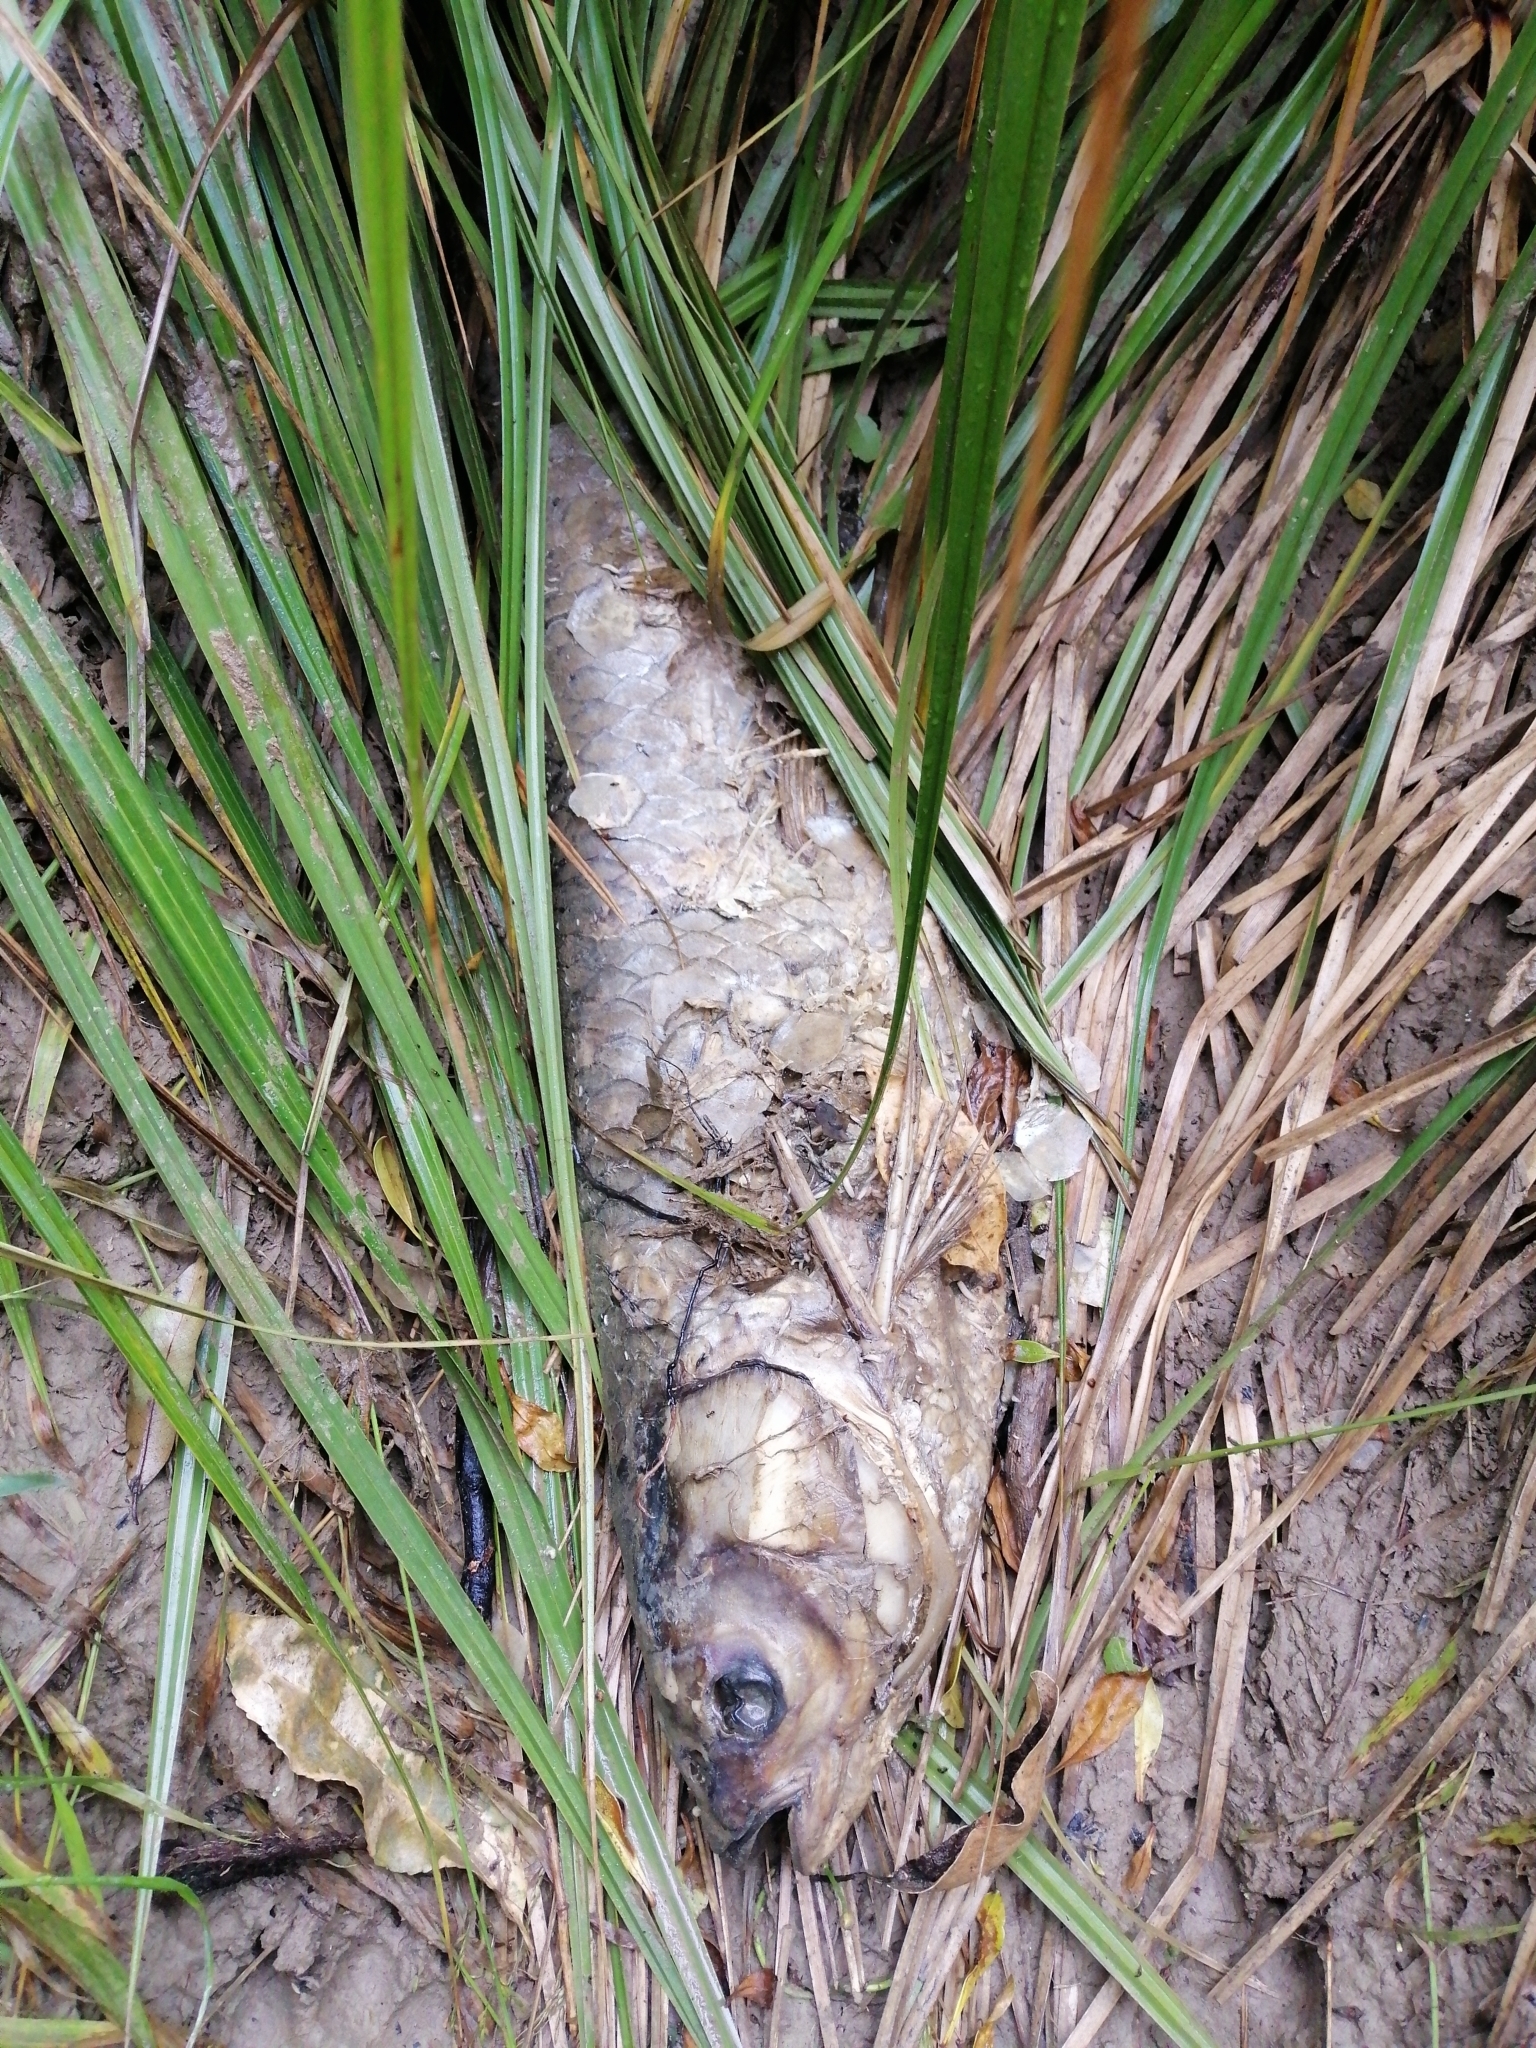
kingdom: Animalia
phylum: Chordata
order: Cypriniformes
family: Cyprinidae
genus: Ctenopharyngodon
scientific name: Ctenopharyngodon idella
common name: Grass carp
